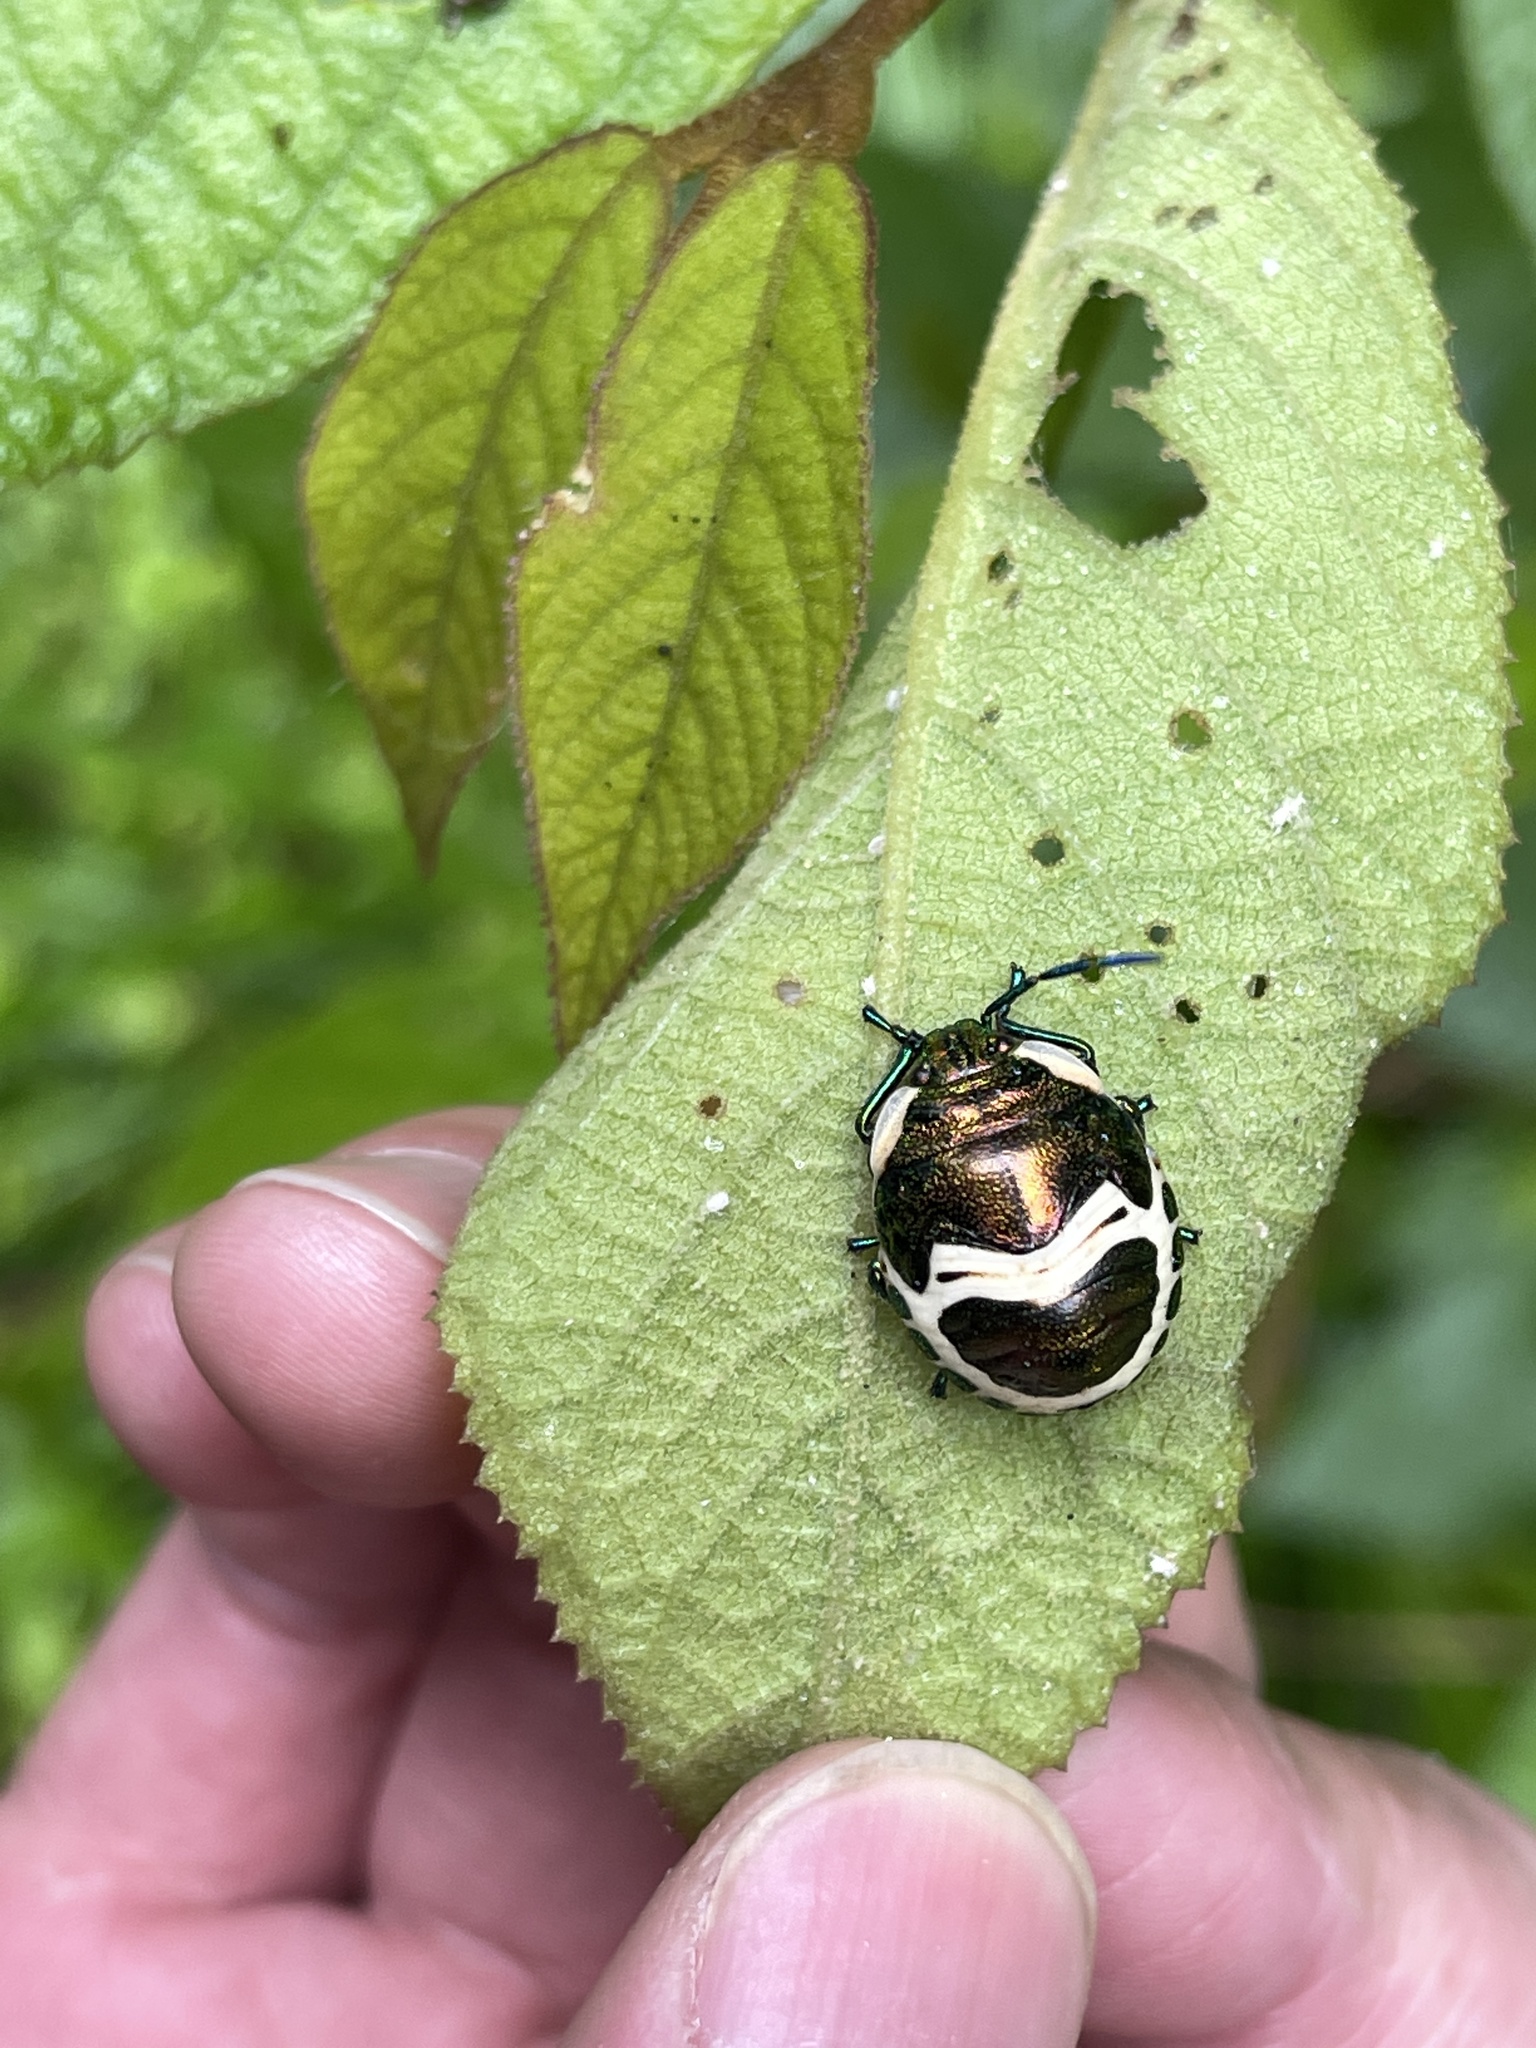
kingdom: Animalia
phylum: Arthropoda
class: Insecta
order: Hemiptera
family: Scutelleridae
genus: Poecilocoris
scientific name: Poecilocoris lewisi
